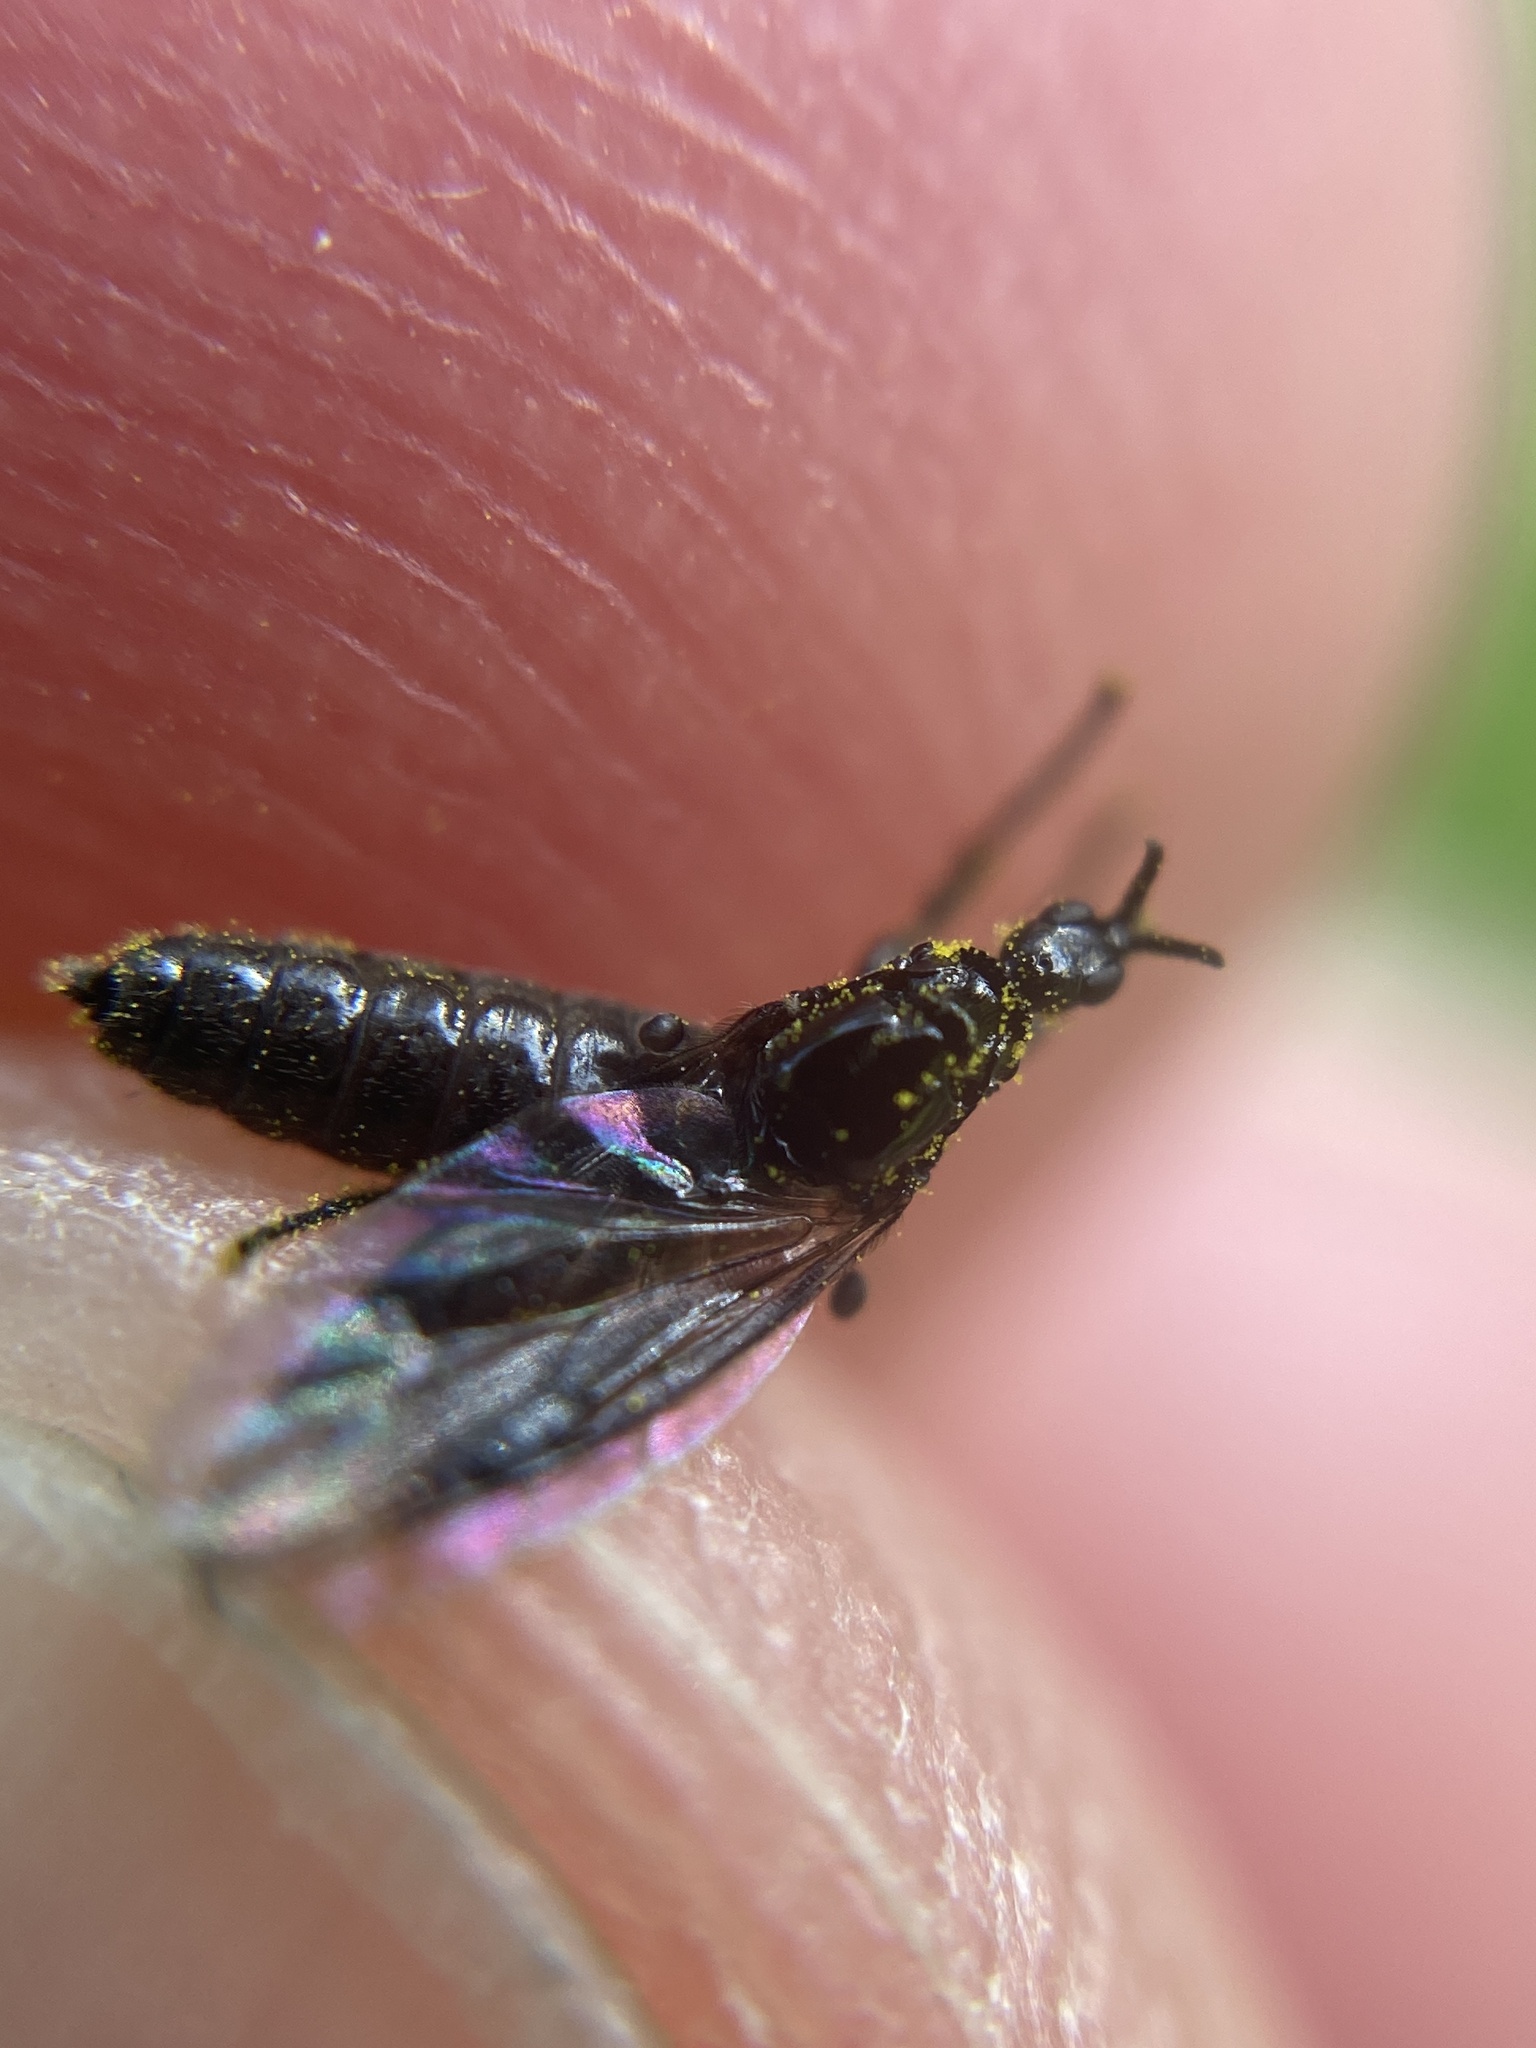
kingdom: Animalia
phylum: Arthropoda
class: Insecta
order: Diptera
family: Bibionidae
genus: Dilophus
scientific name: Dilophus febrilis
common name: Fever fly
